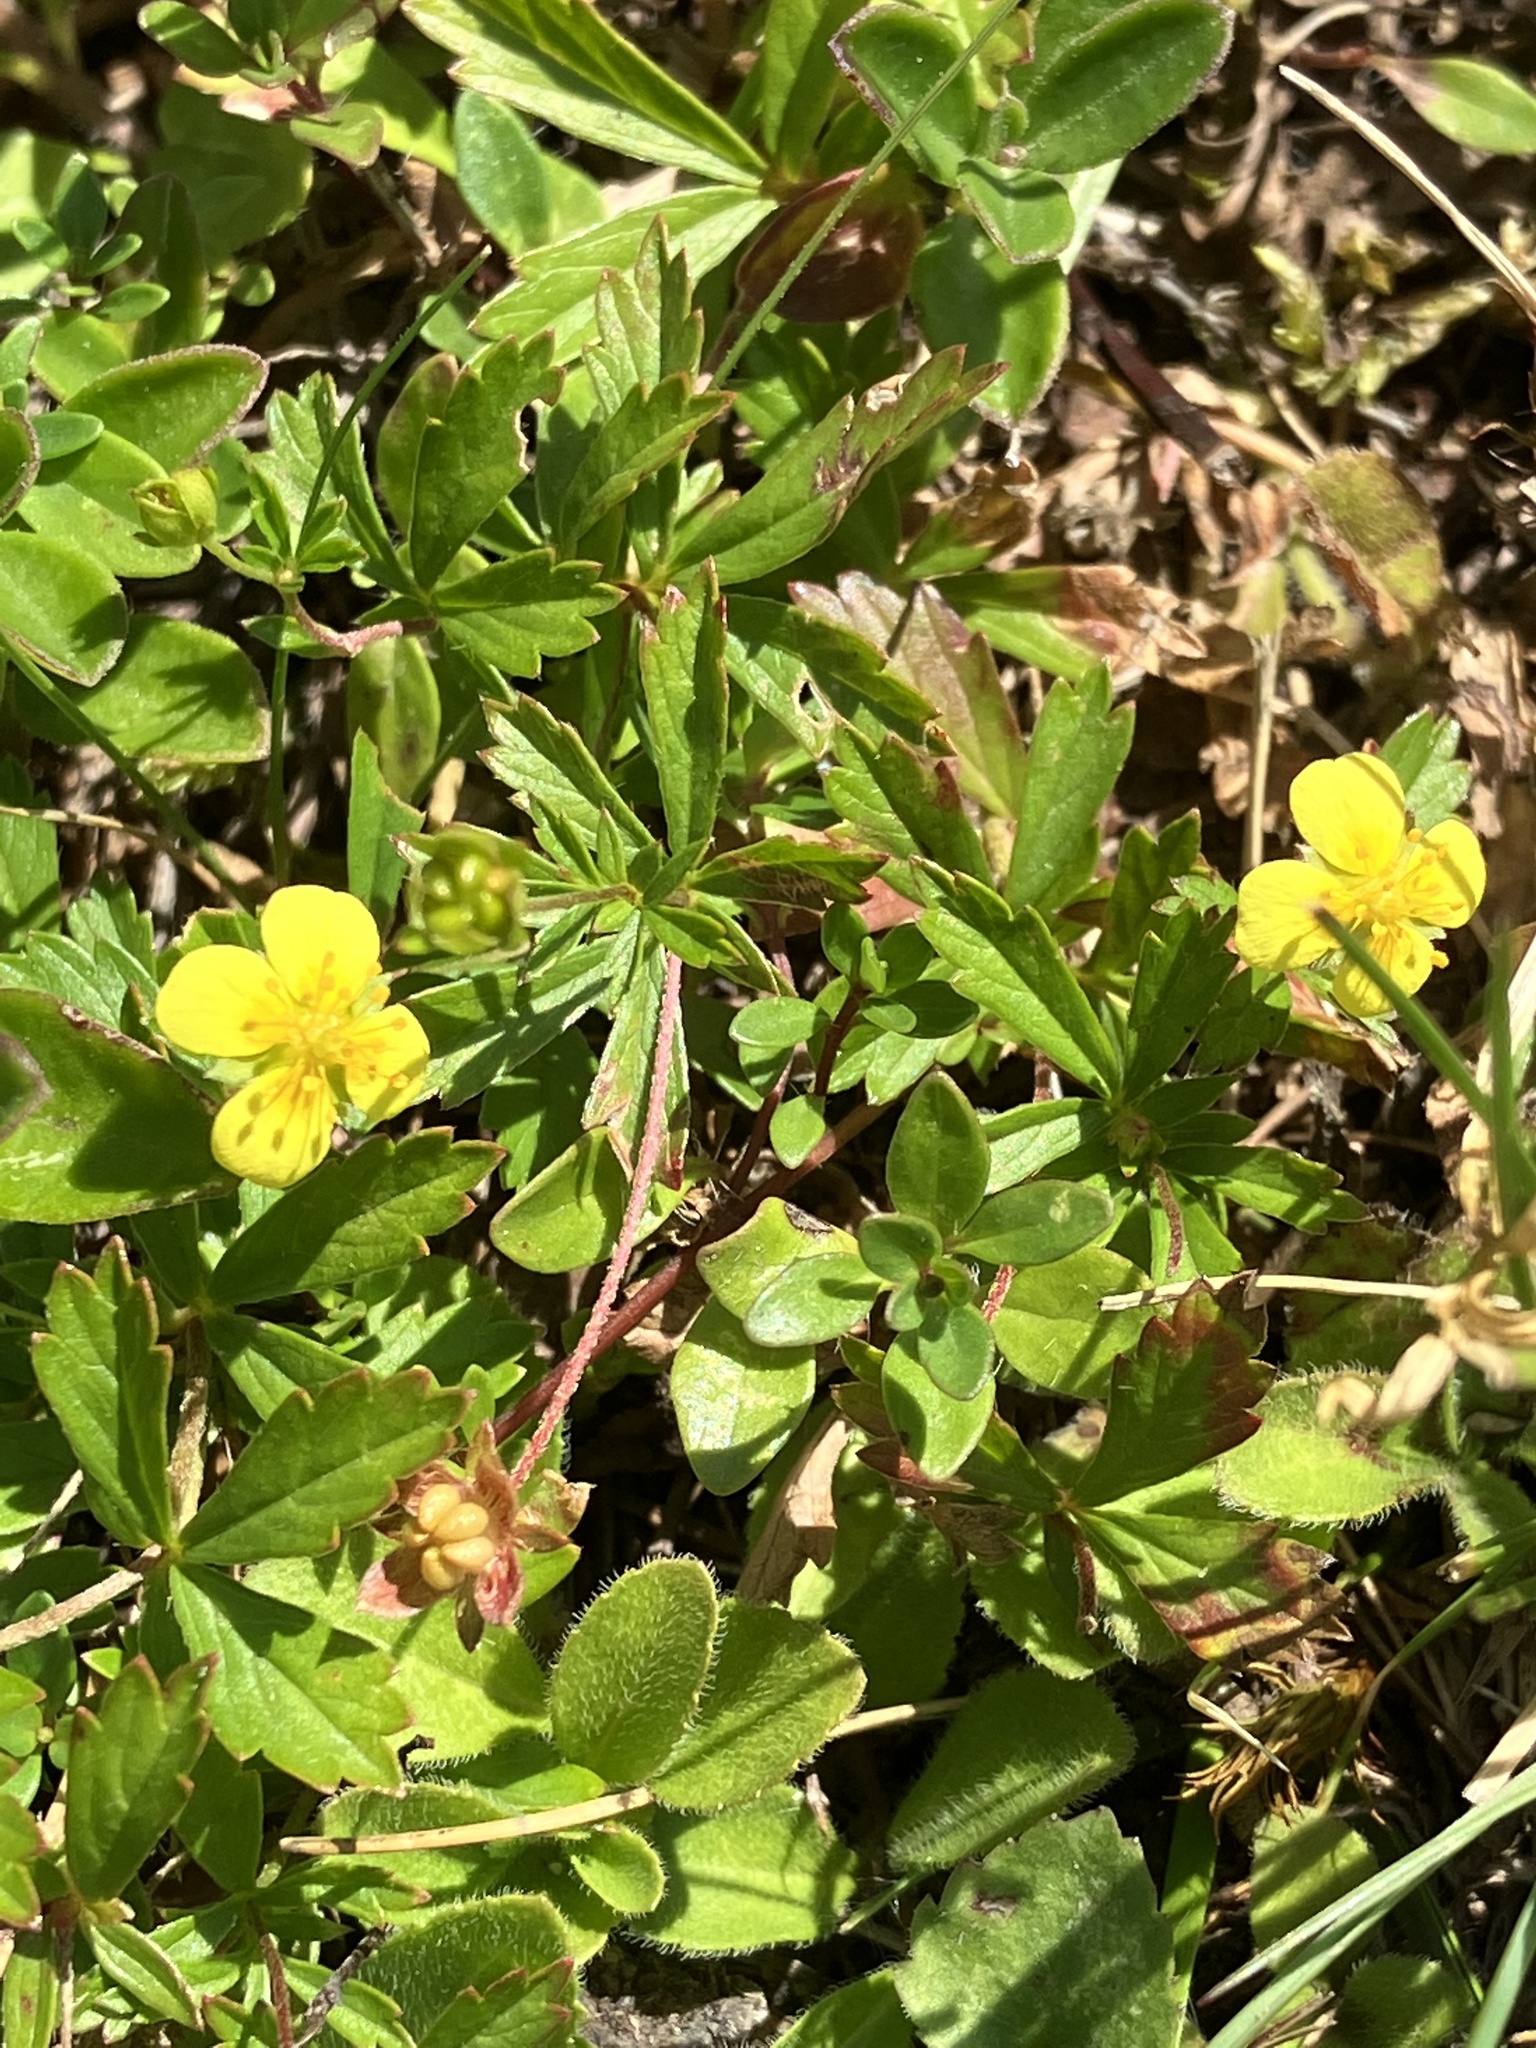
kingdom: Plantae
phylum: Tracheophyta
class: Magnoliopsida
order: Rosales
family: Rosaceae
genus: Potentilla
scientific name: Potentilla erecta
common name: Tormentil
